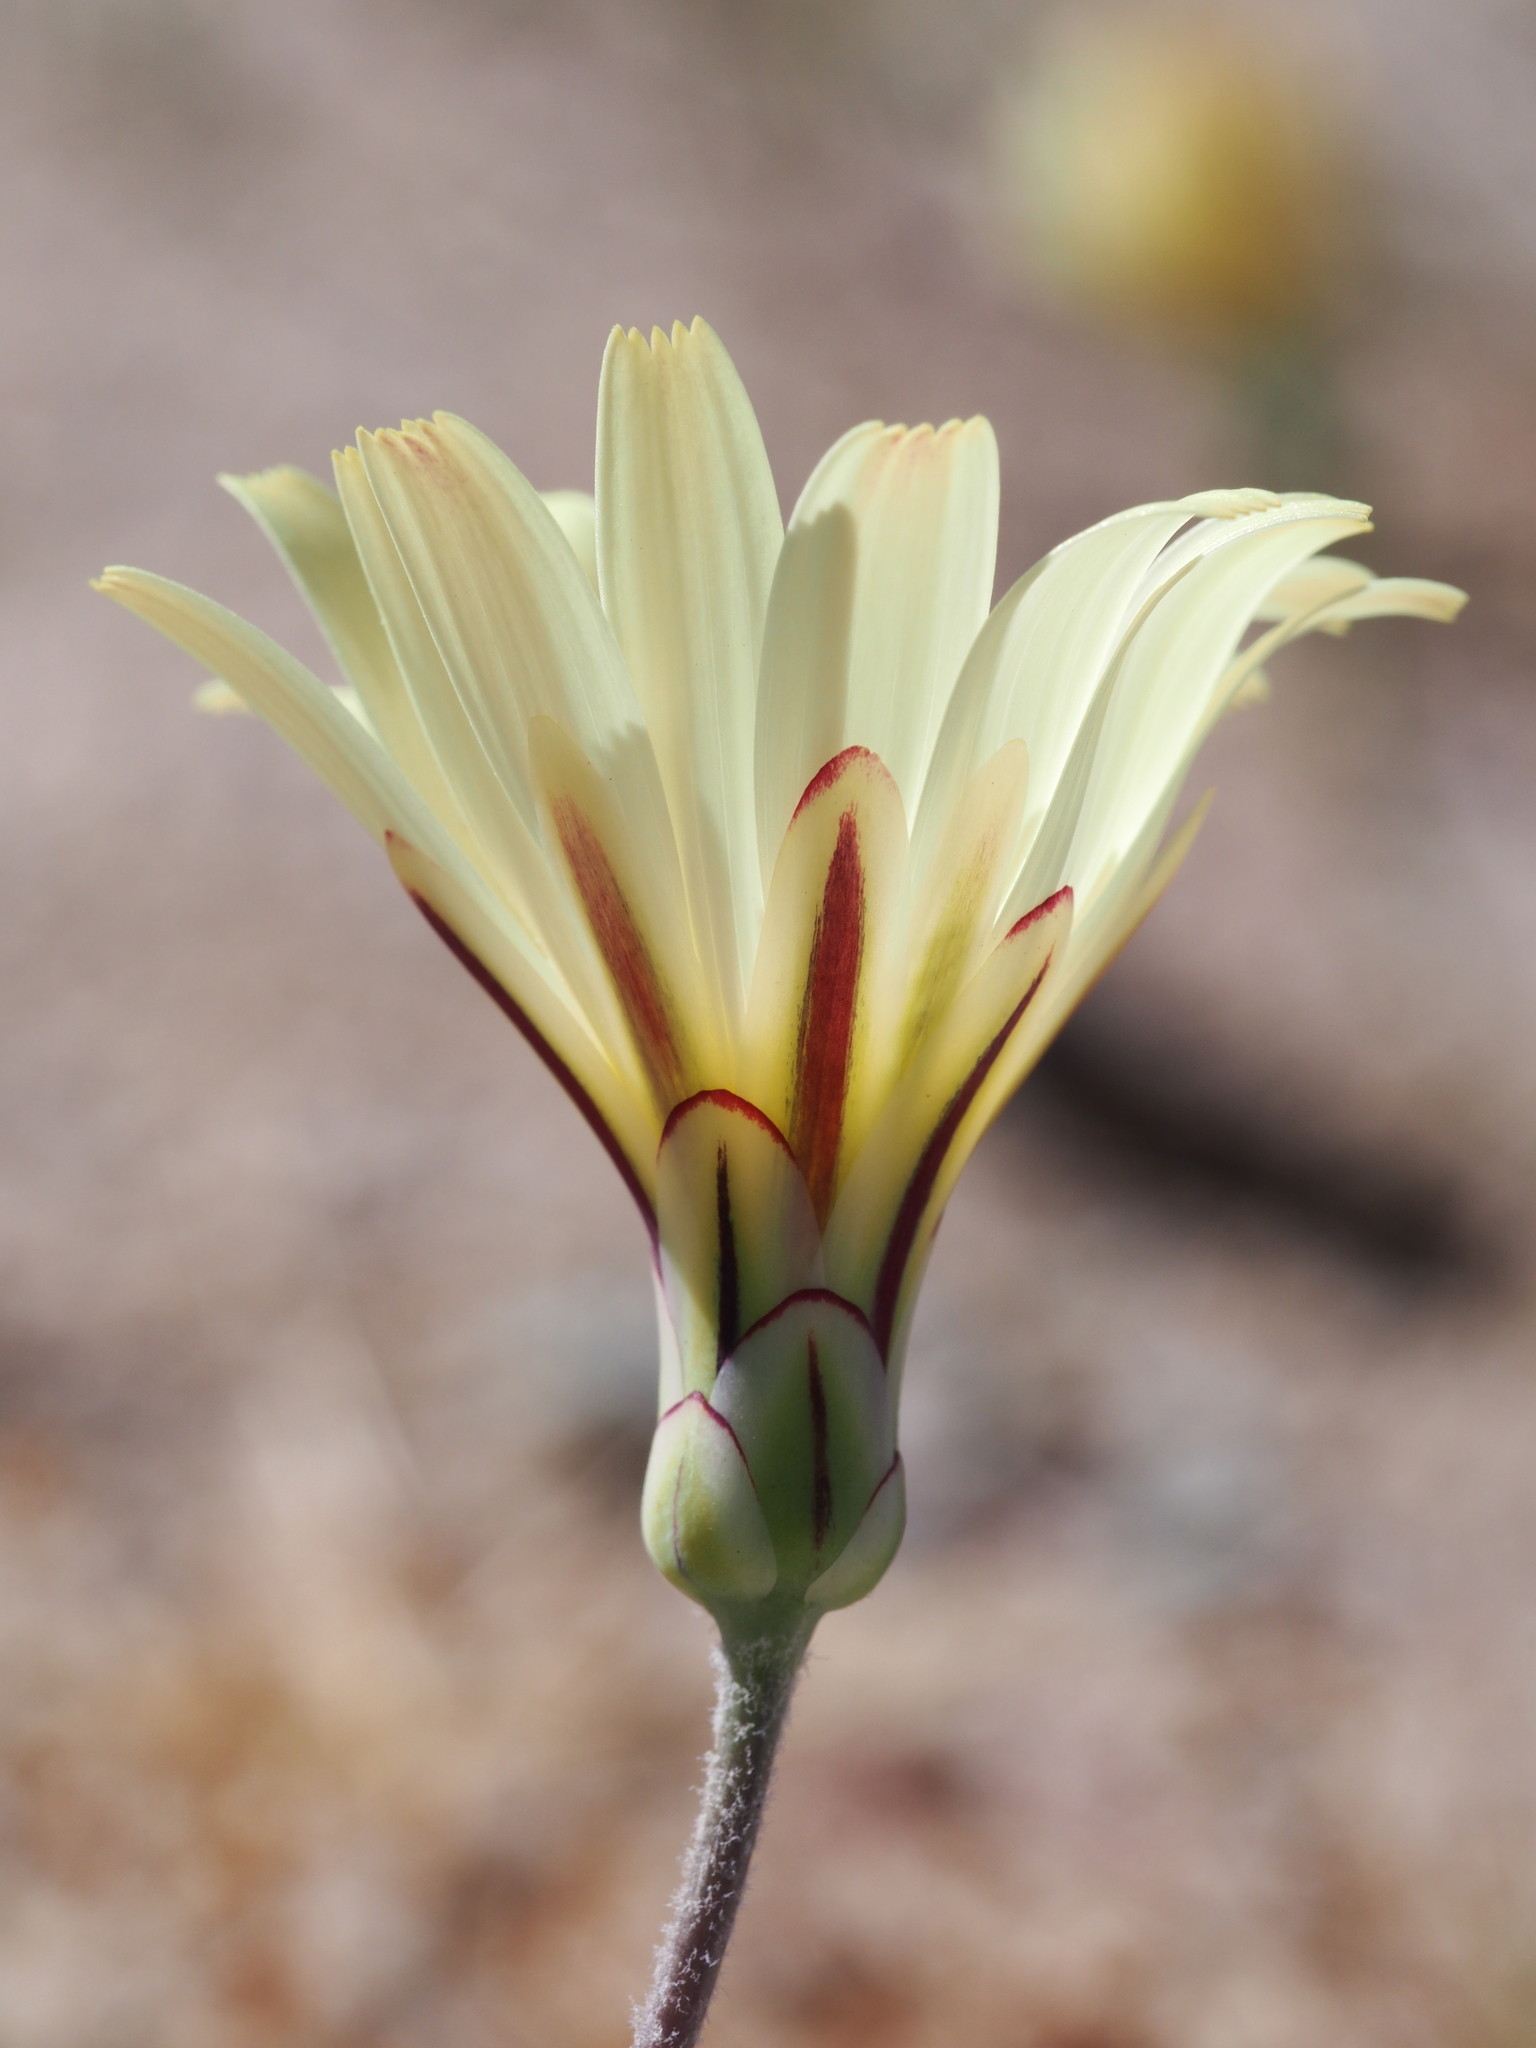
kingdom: Plantae
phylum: Tracheophyta
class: Magnoliopsida
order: Asterales
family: Asteraceae
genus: Anisocoma
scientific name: Anisocoma acaulis
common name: Scalebud
